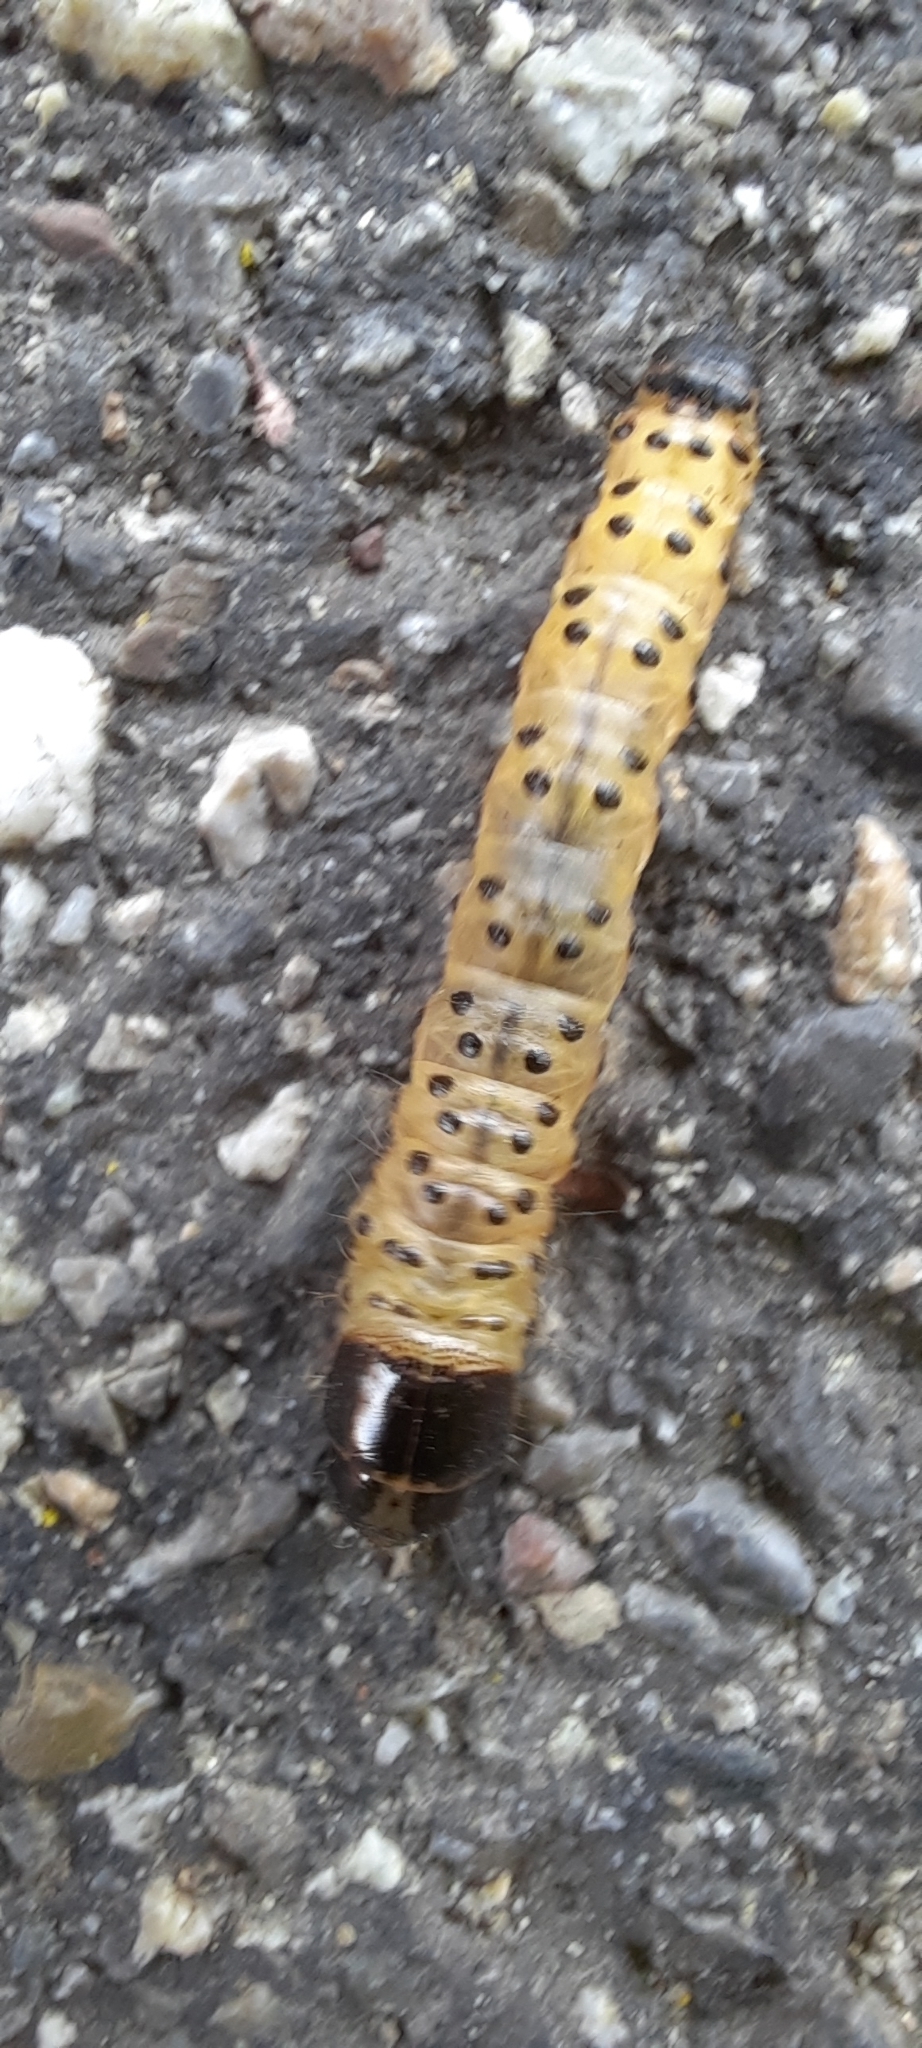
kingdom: Animalia
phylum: Arthropoda
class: Insecta
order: Lepidoptera
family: Cossidae
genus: Zeuzera
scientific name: Zeuzera pyrina
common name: Leopard moth
